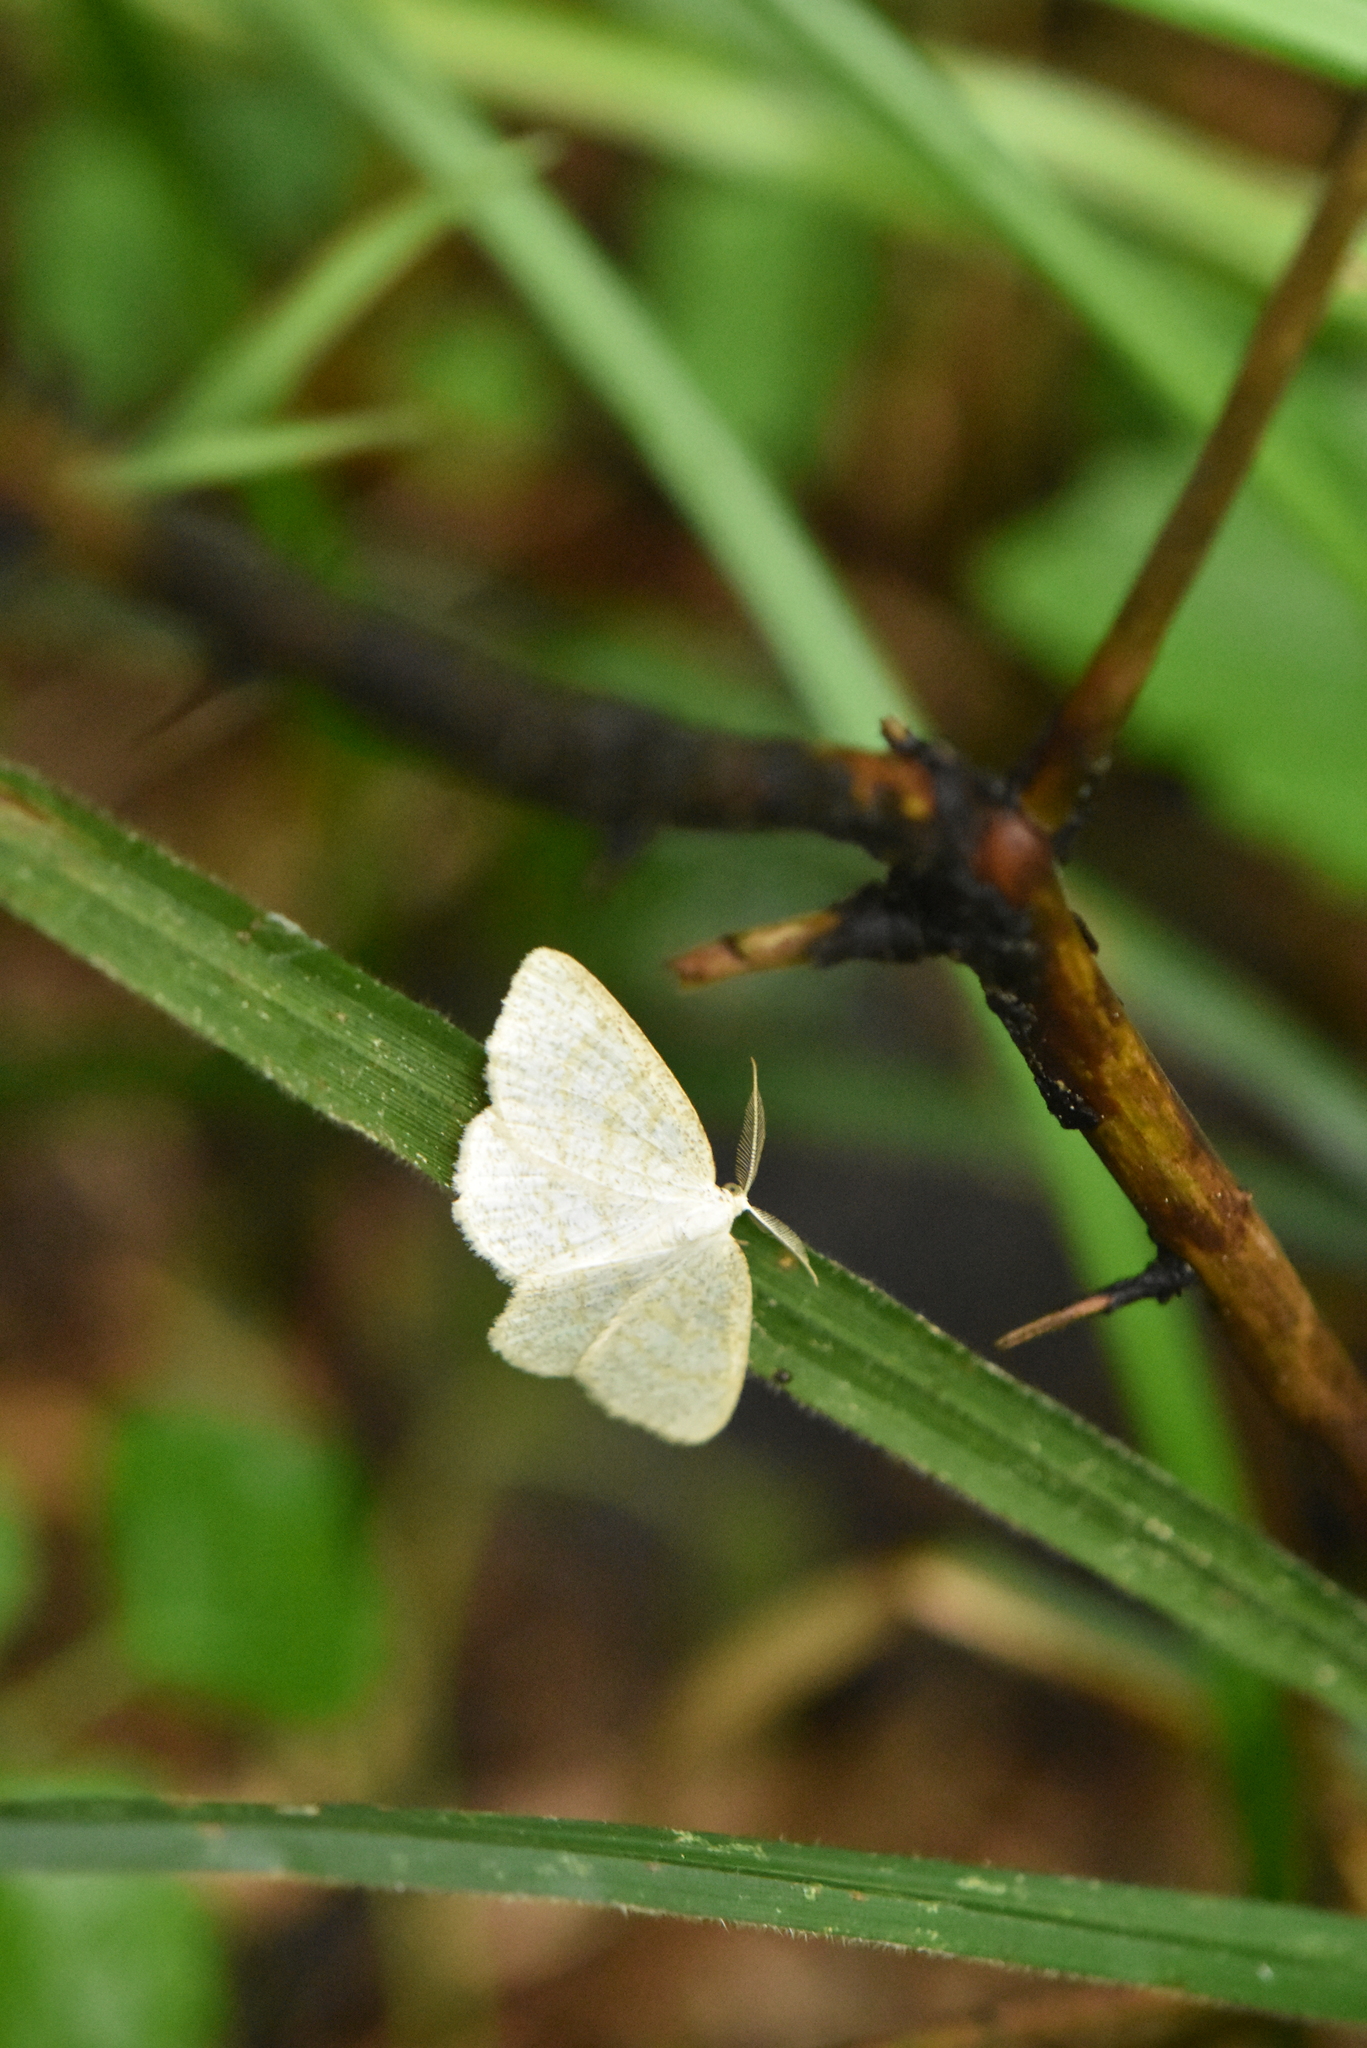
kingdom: Animalia
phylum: Arthropoda
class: Insecta
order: Lepidoptera
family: Geometridae
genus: Cabera
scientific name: Cabera exanthemata
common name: Common wave
